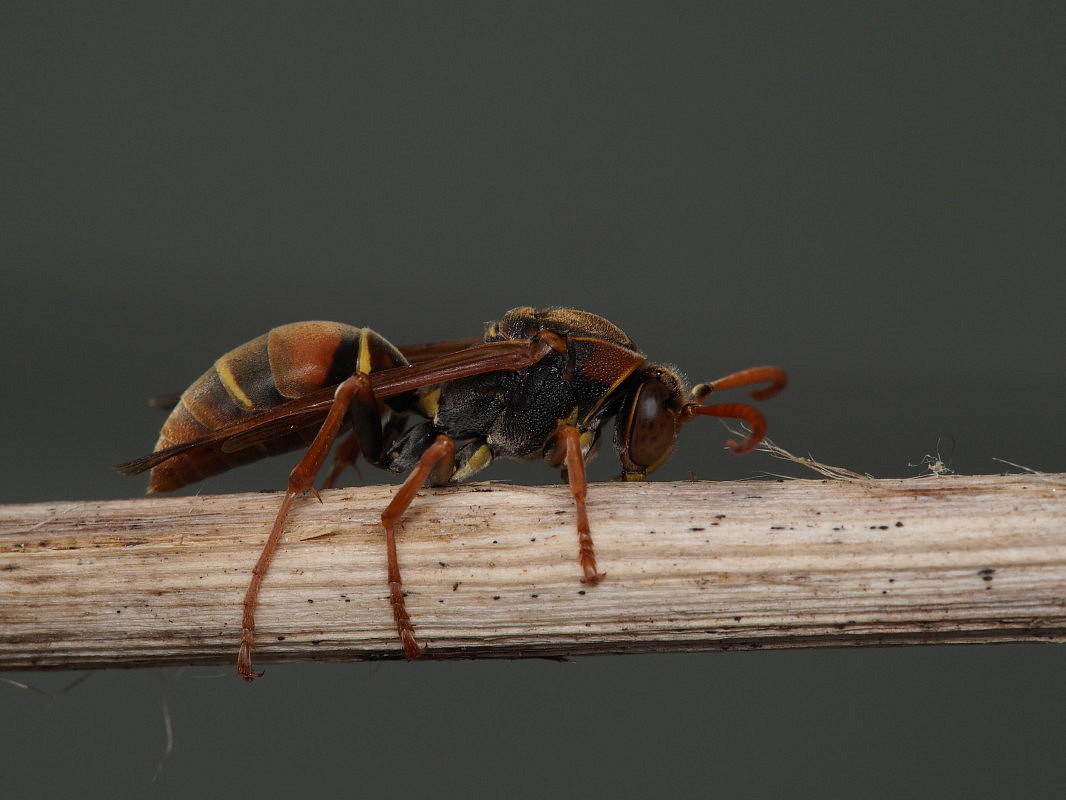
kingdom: Animalia
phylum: Arthropoda
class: Insecta
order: Hymenoptera
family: Eumenidae
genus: Polistes
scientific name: Polistes humilis
